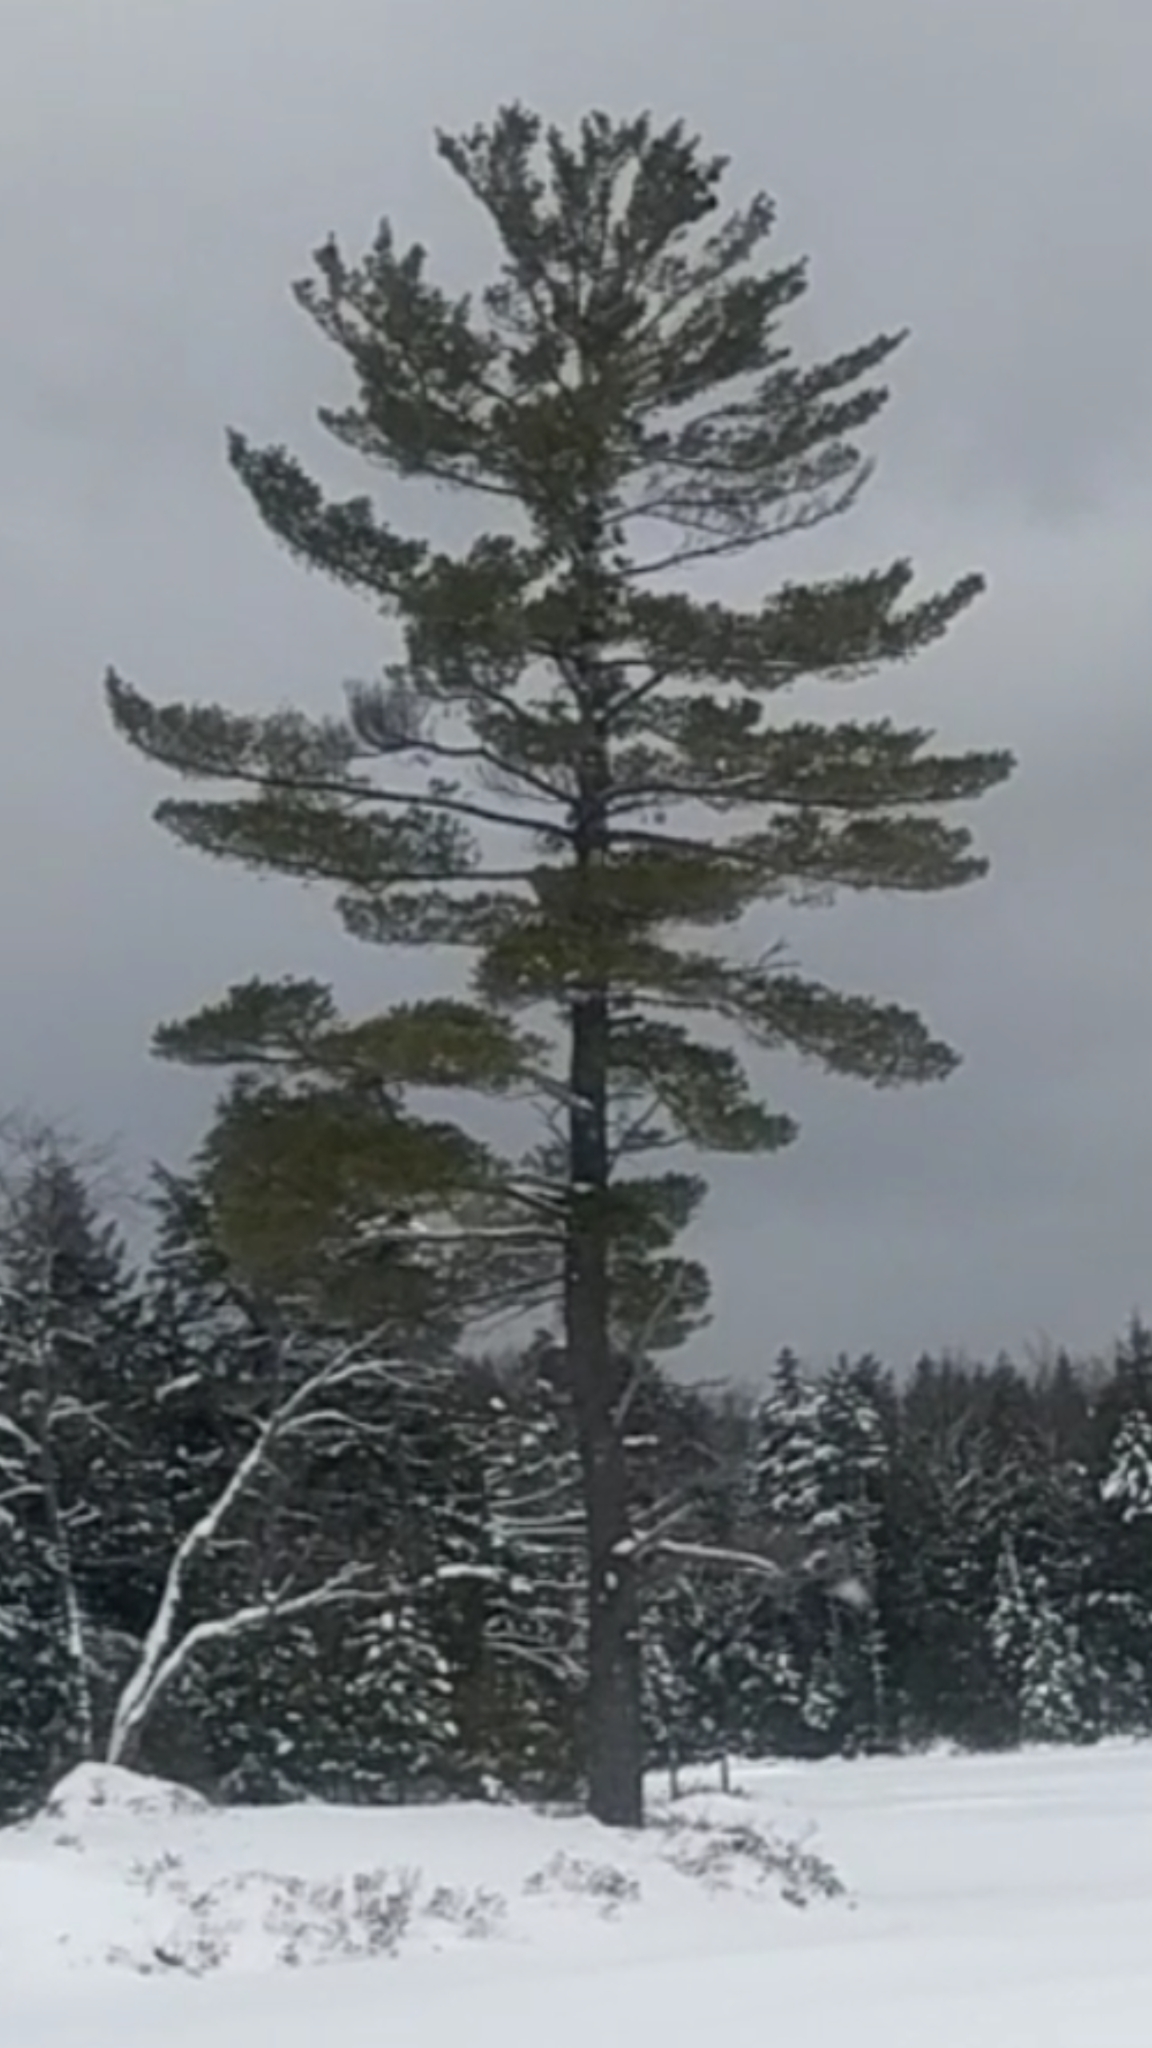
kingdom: Plantae
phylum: Tracheophyta
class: Pinopsida
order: Pinales
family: Pinaceae
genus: Pinus
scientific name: Pinus strobus
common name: Weymouth pine
